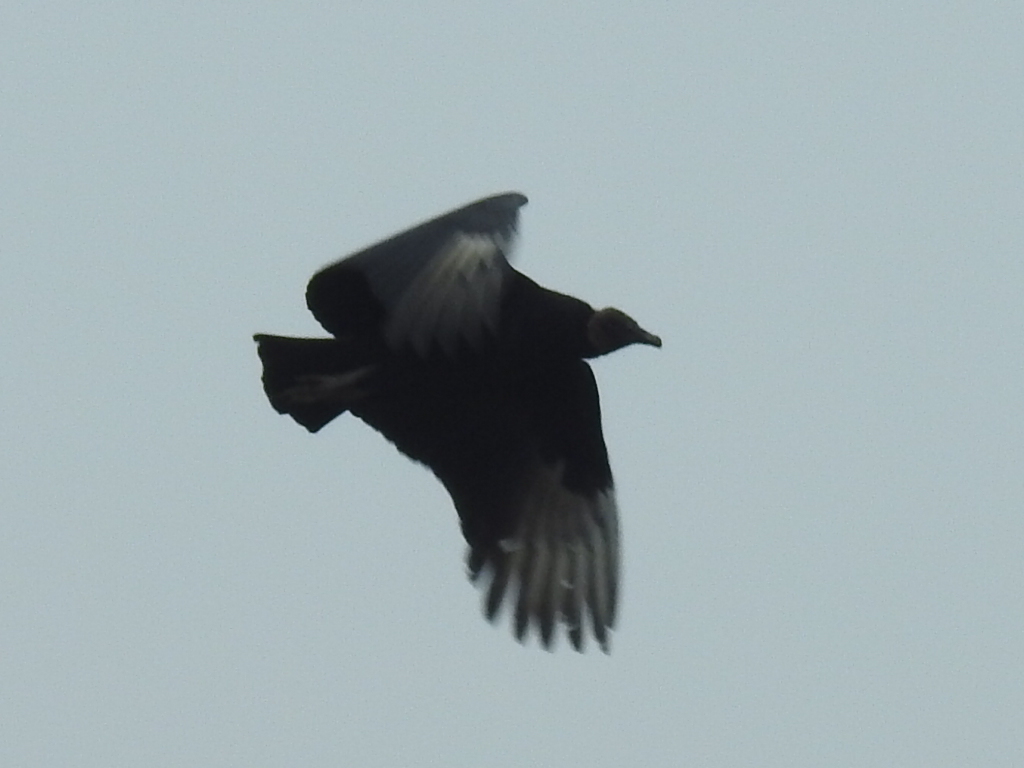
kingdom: Animalia
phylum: Chordata
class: Aves
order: Accipitriformes
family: Cathartidae
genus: Coragyps
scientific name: Coragyps atratus
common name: Black vulture
